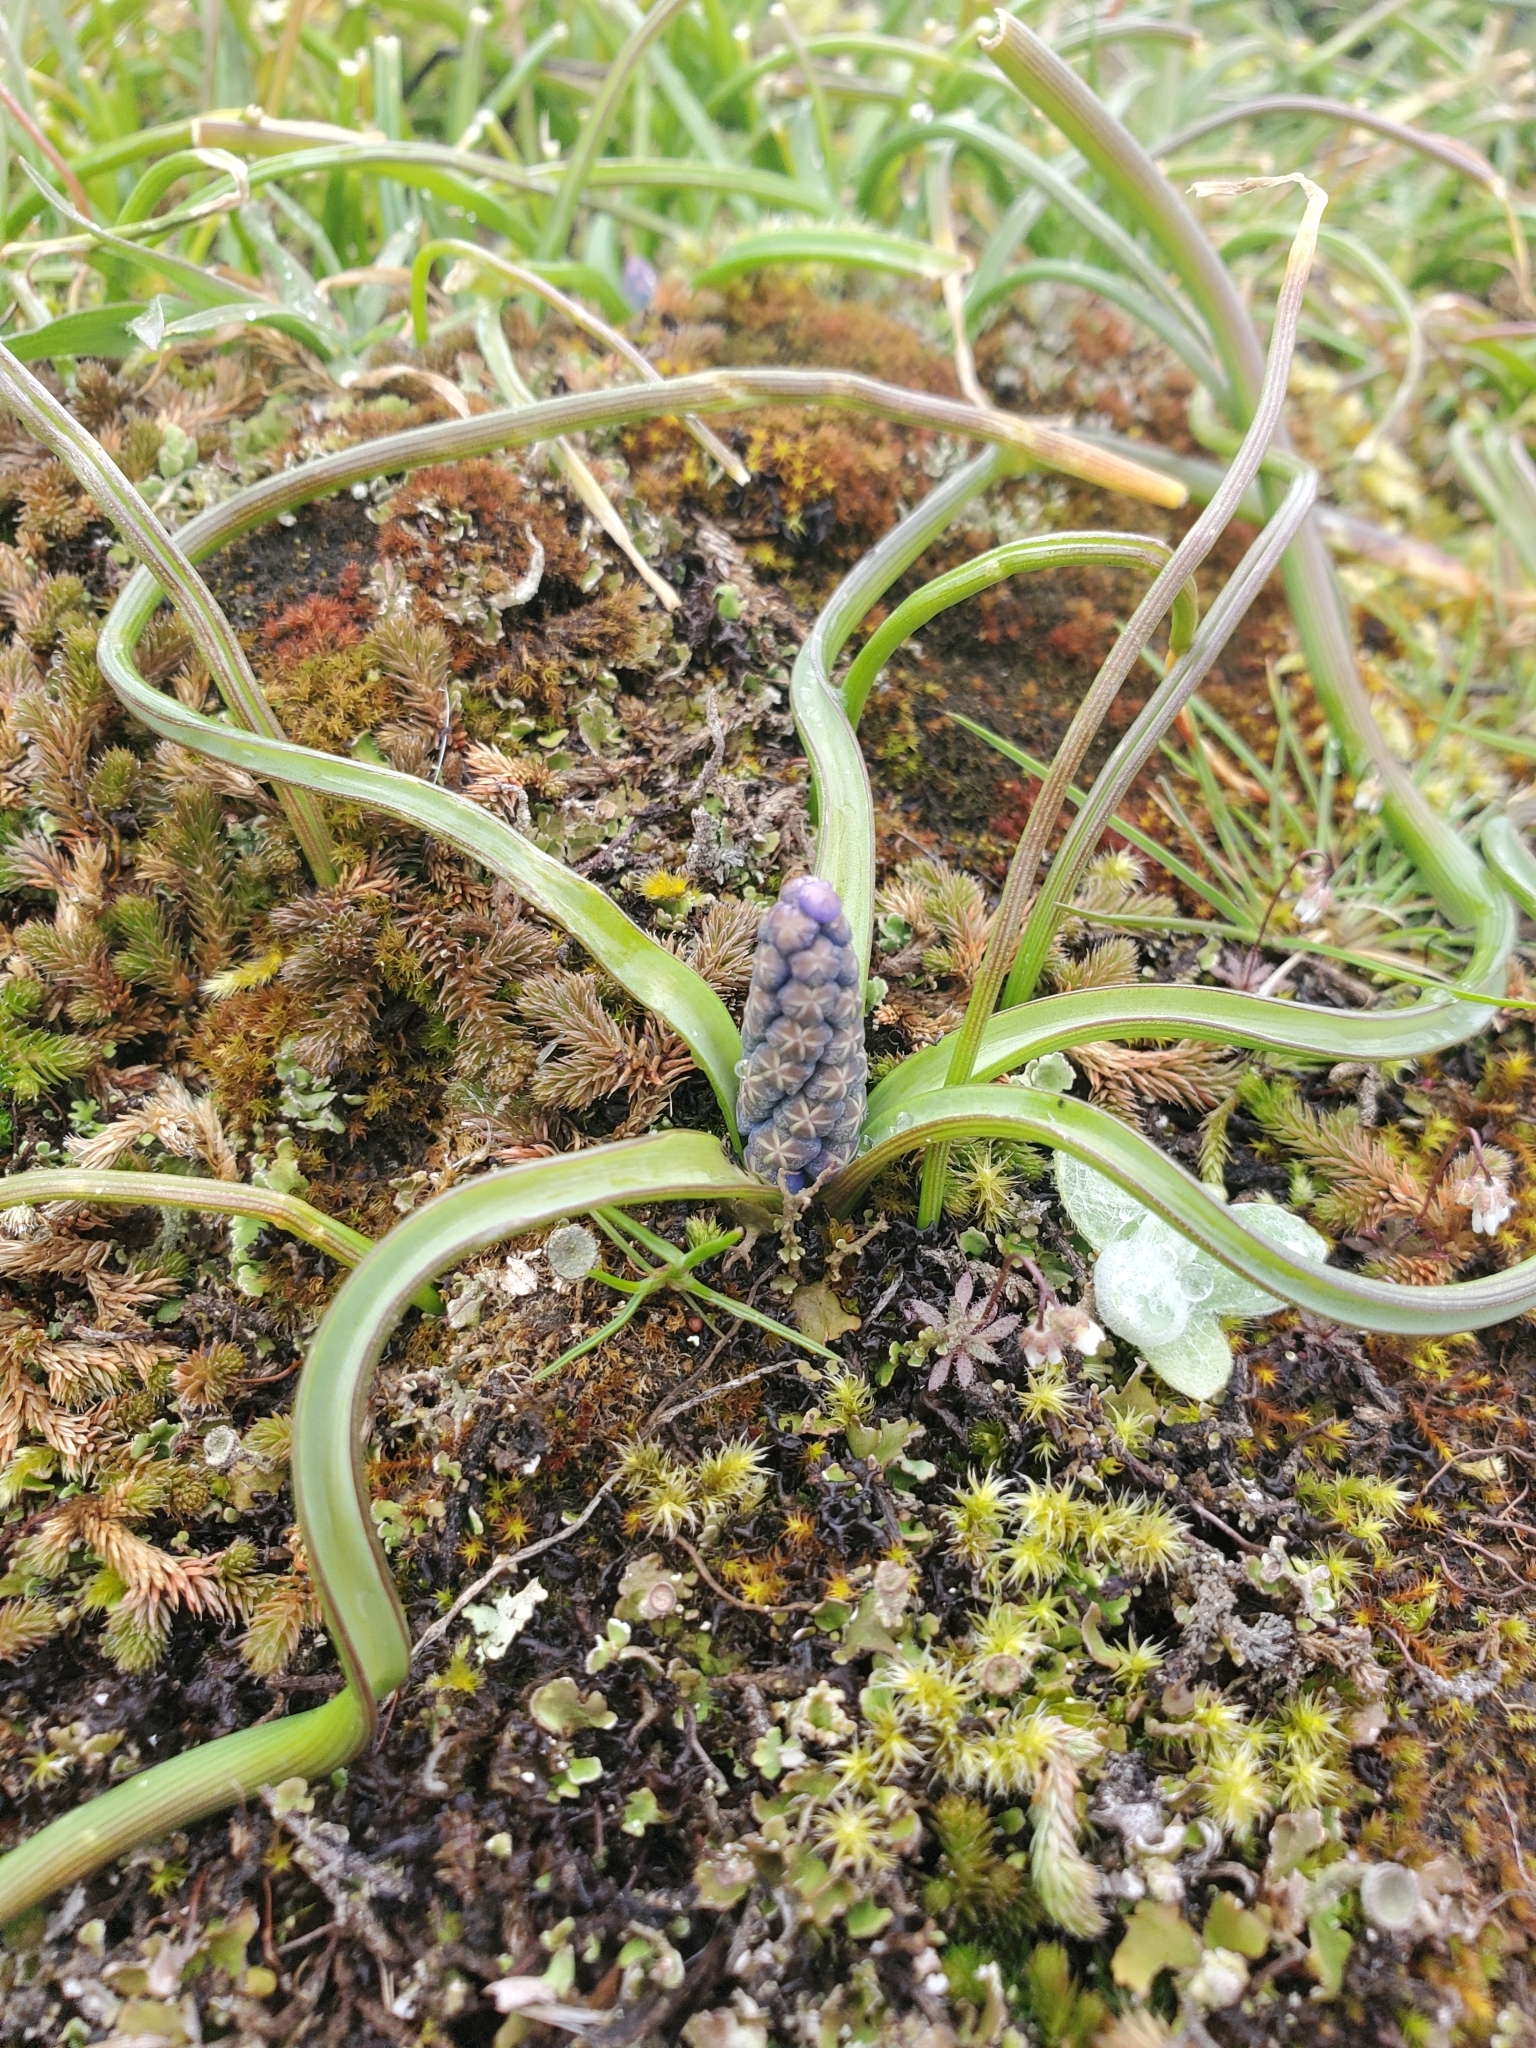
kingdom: Plantae
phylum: Tracheophyta
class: Liliopsida
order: Asparagales
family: Asparagaceae
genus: Muscari
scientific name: Muscari neglectum
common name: Grape-hyacinth
